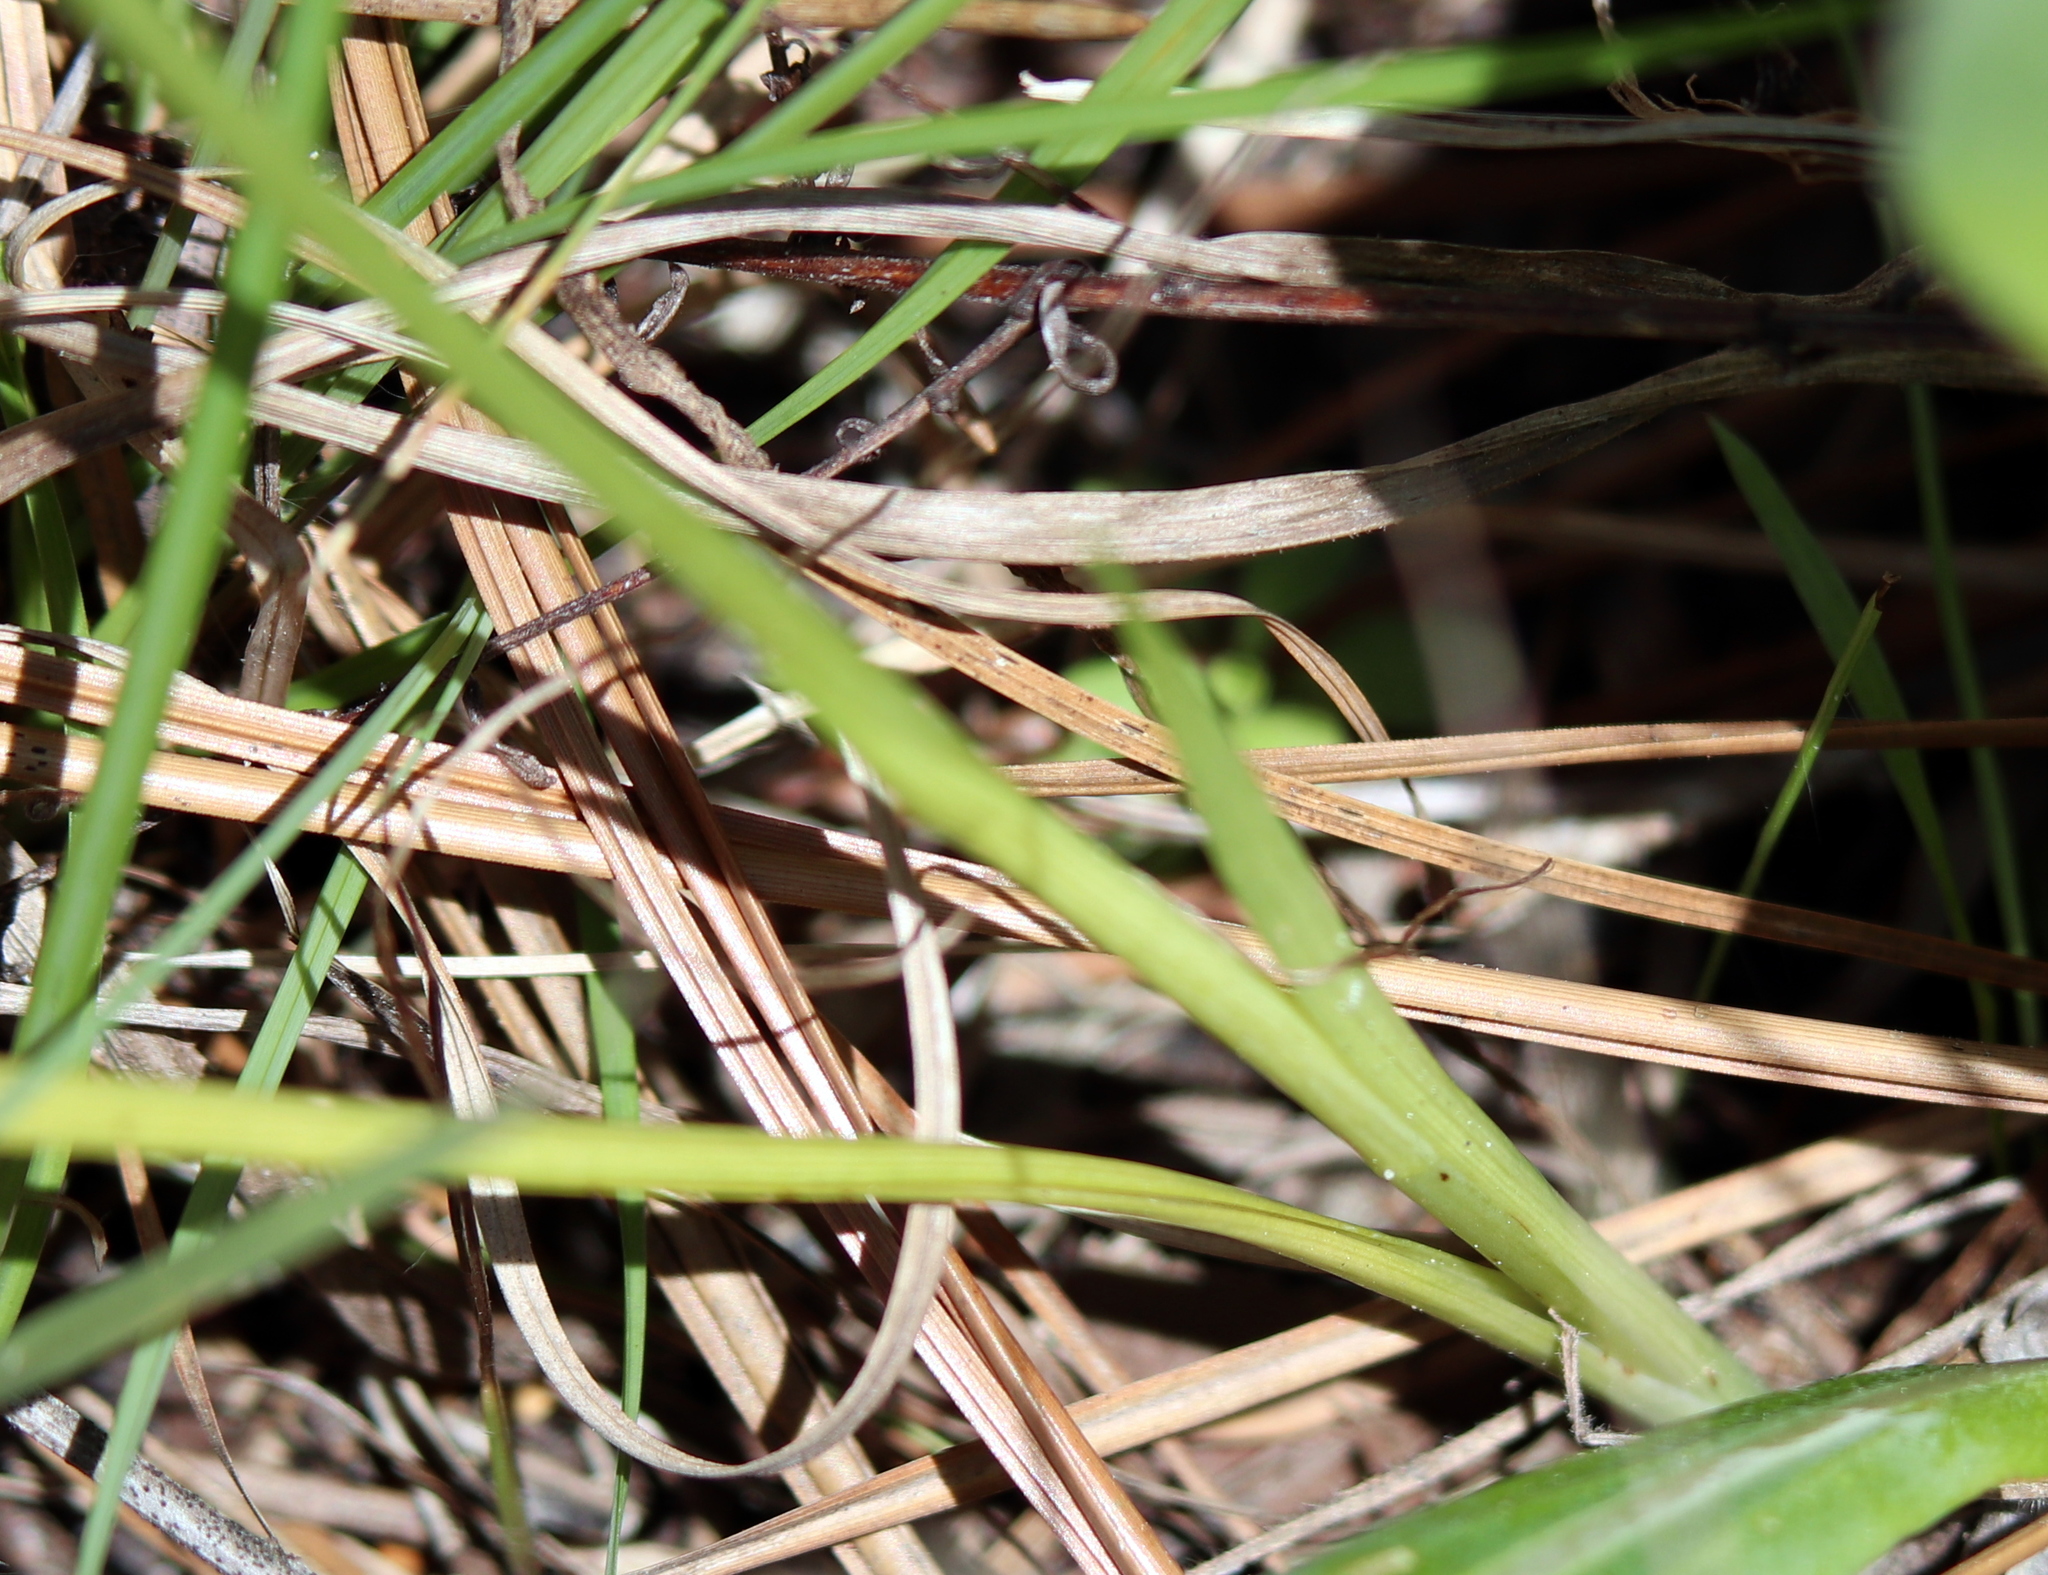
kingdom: Plantae
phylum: Tracheophyta
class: Liliopsida
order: Asparagales
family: Orchidaceae
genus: Spiranthes
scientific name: Spiranthes praecox
